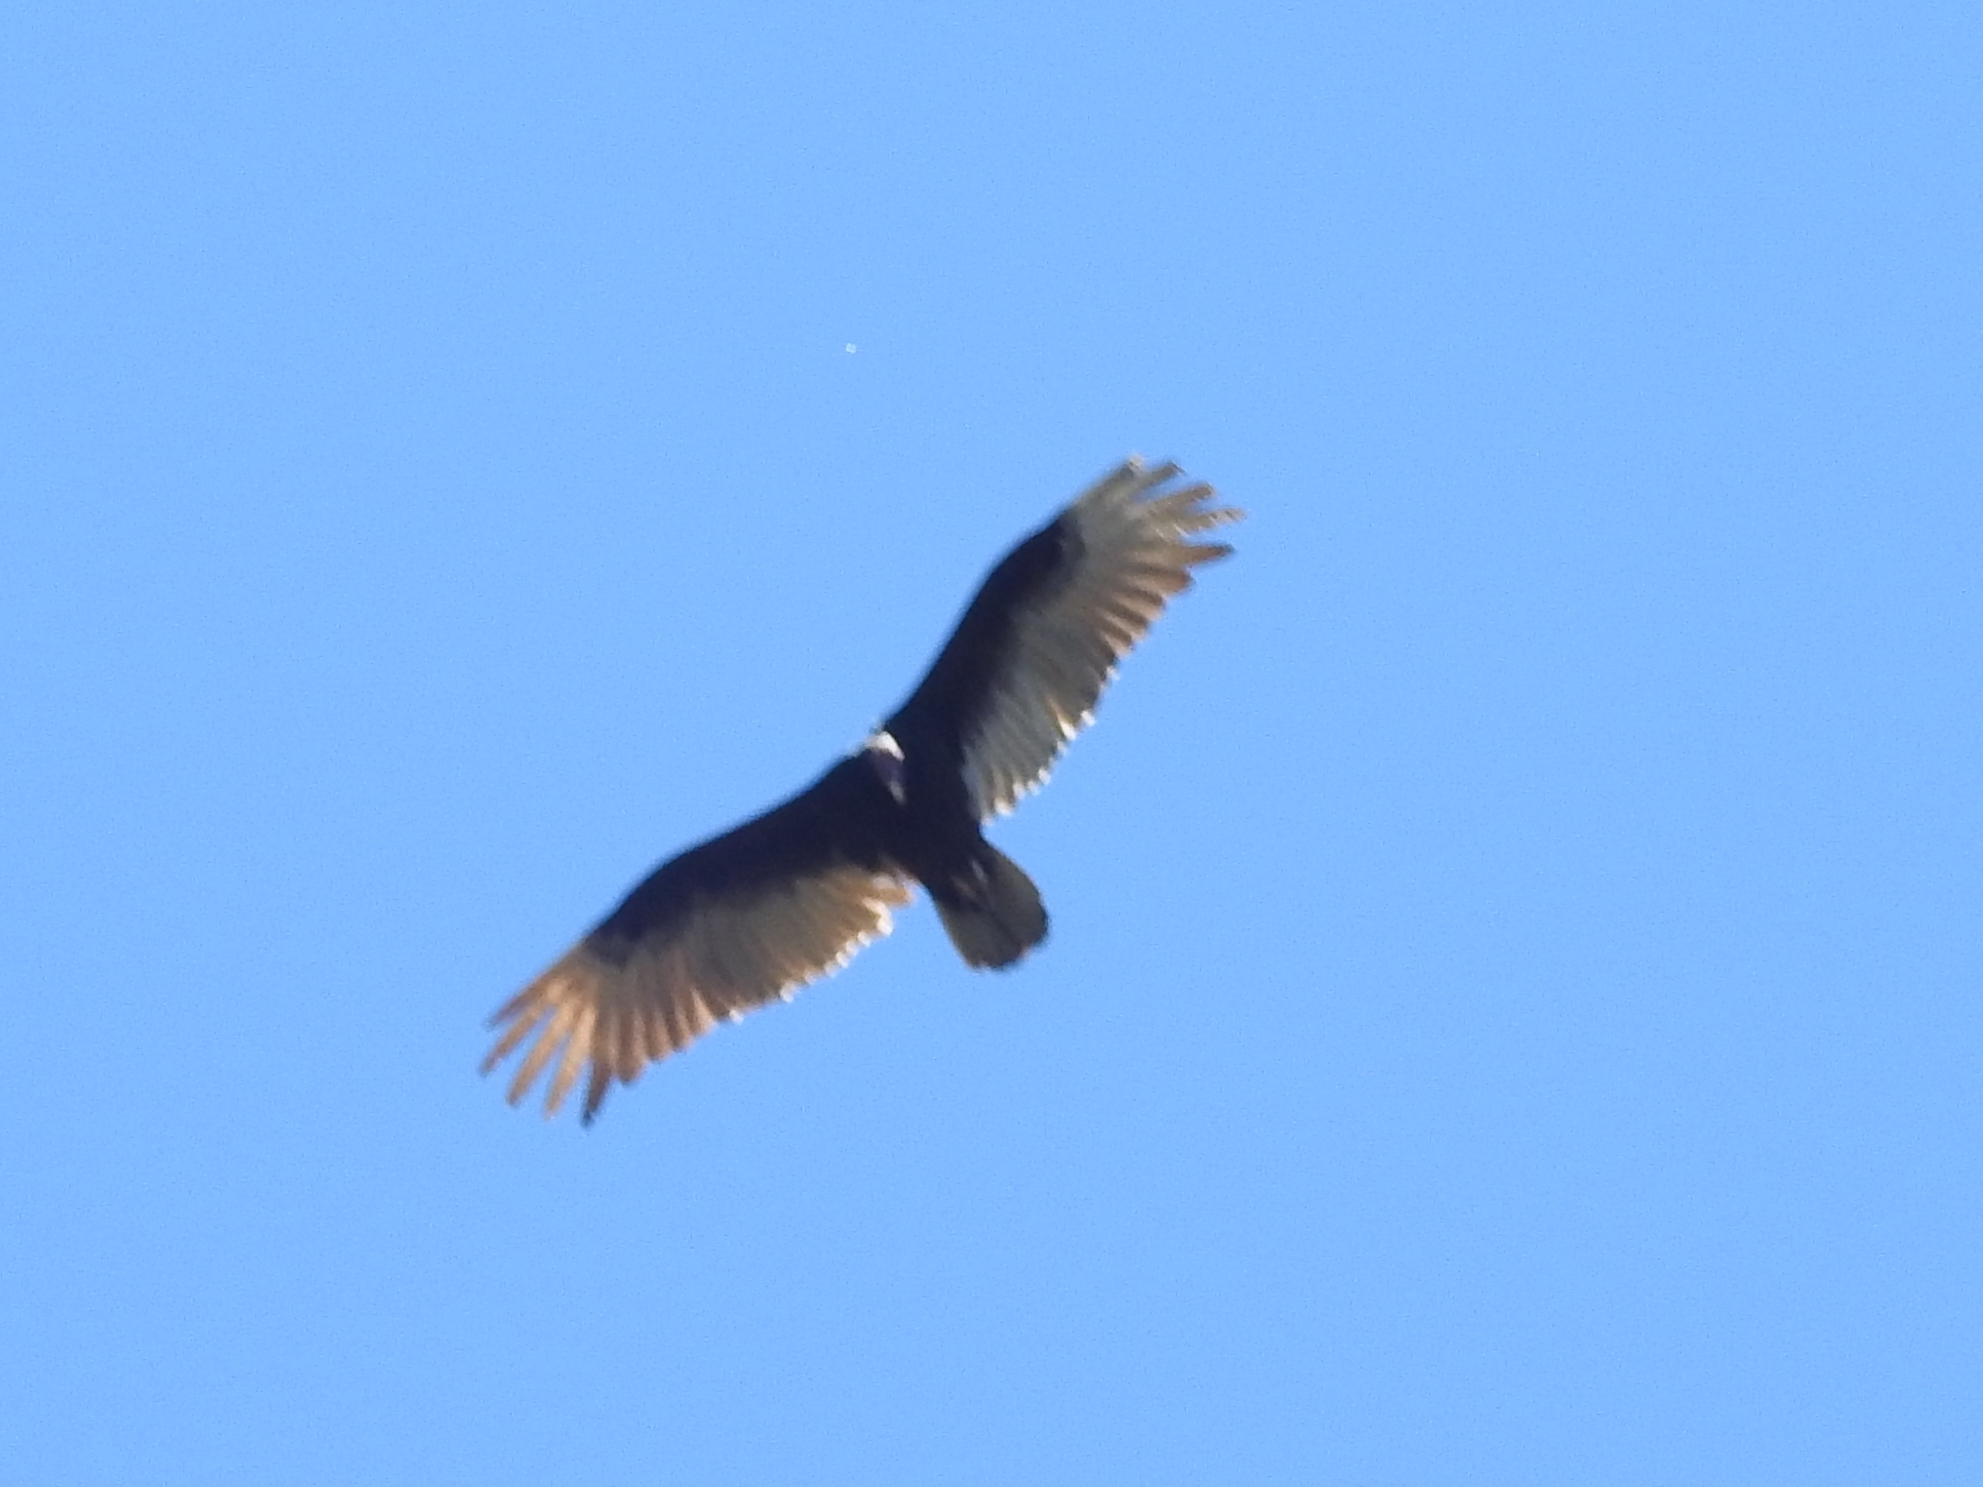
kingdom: Animalia
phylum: Chordata
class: Aves
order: Accipitriformes
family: Cathartidae
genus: Cathartes
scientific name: Cathartes aura
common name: Turkey vulture
